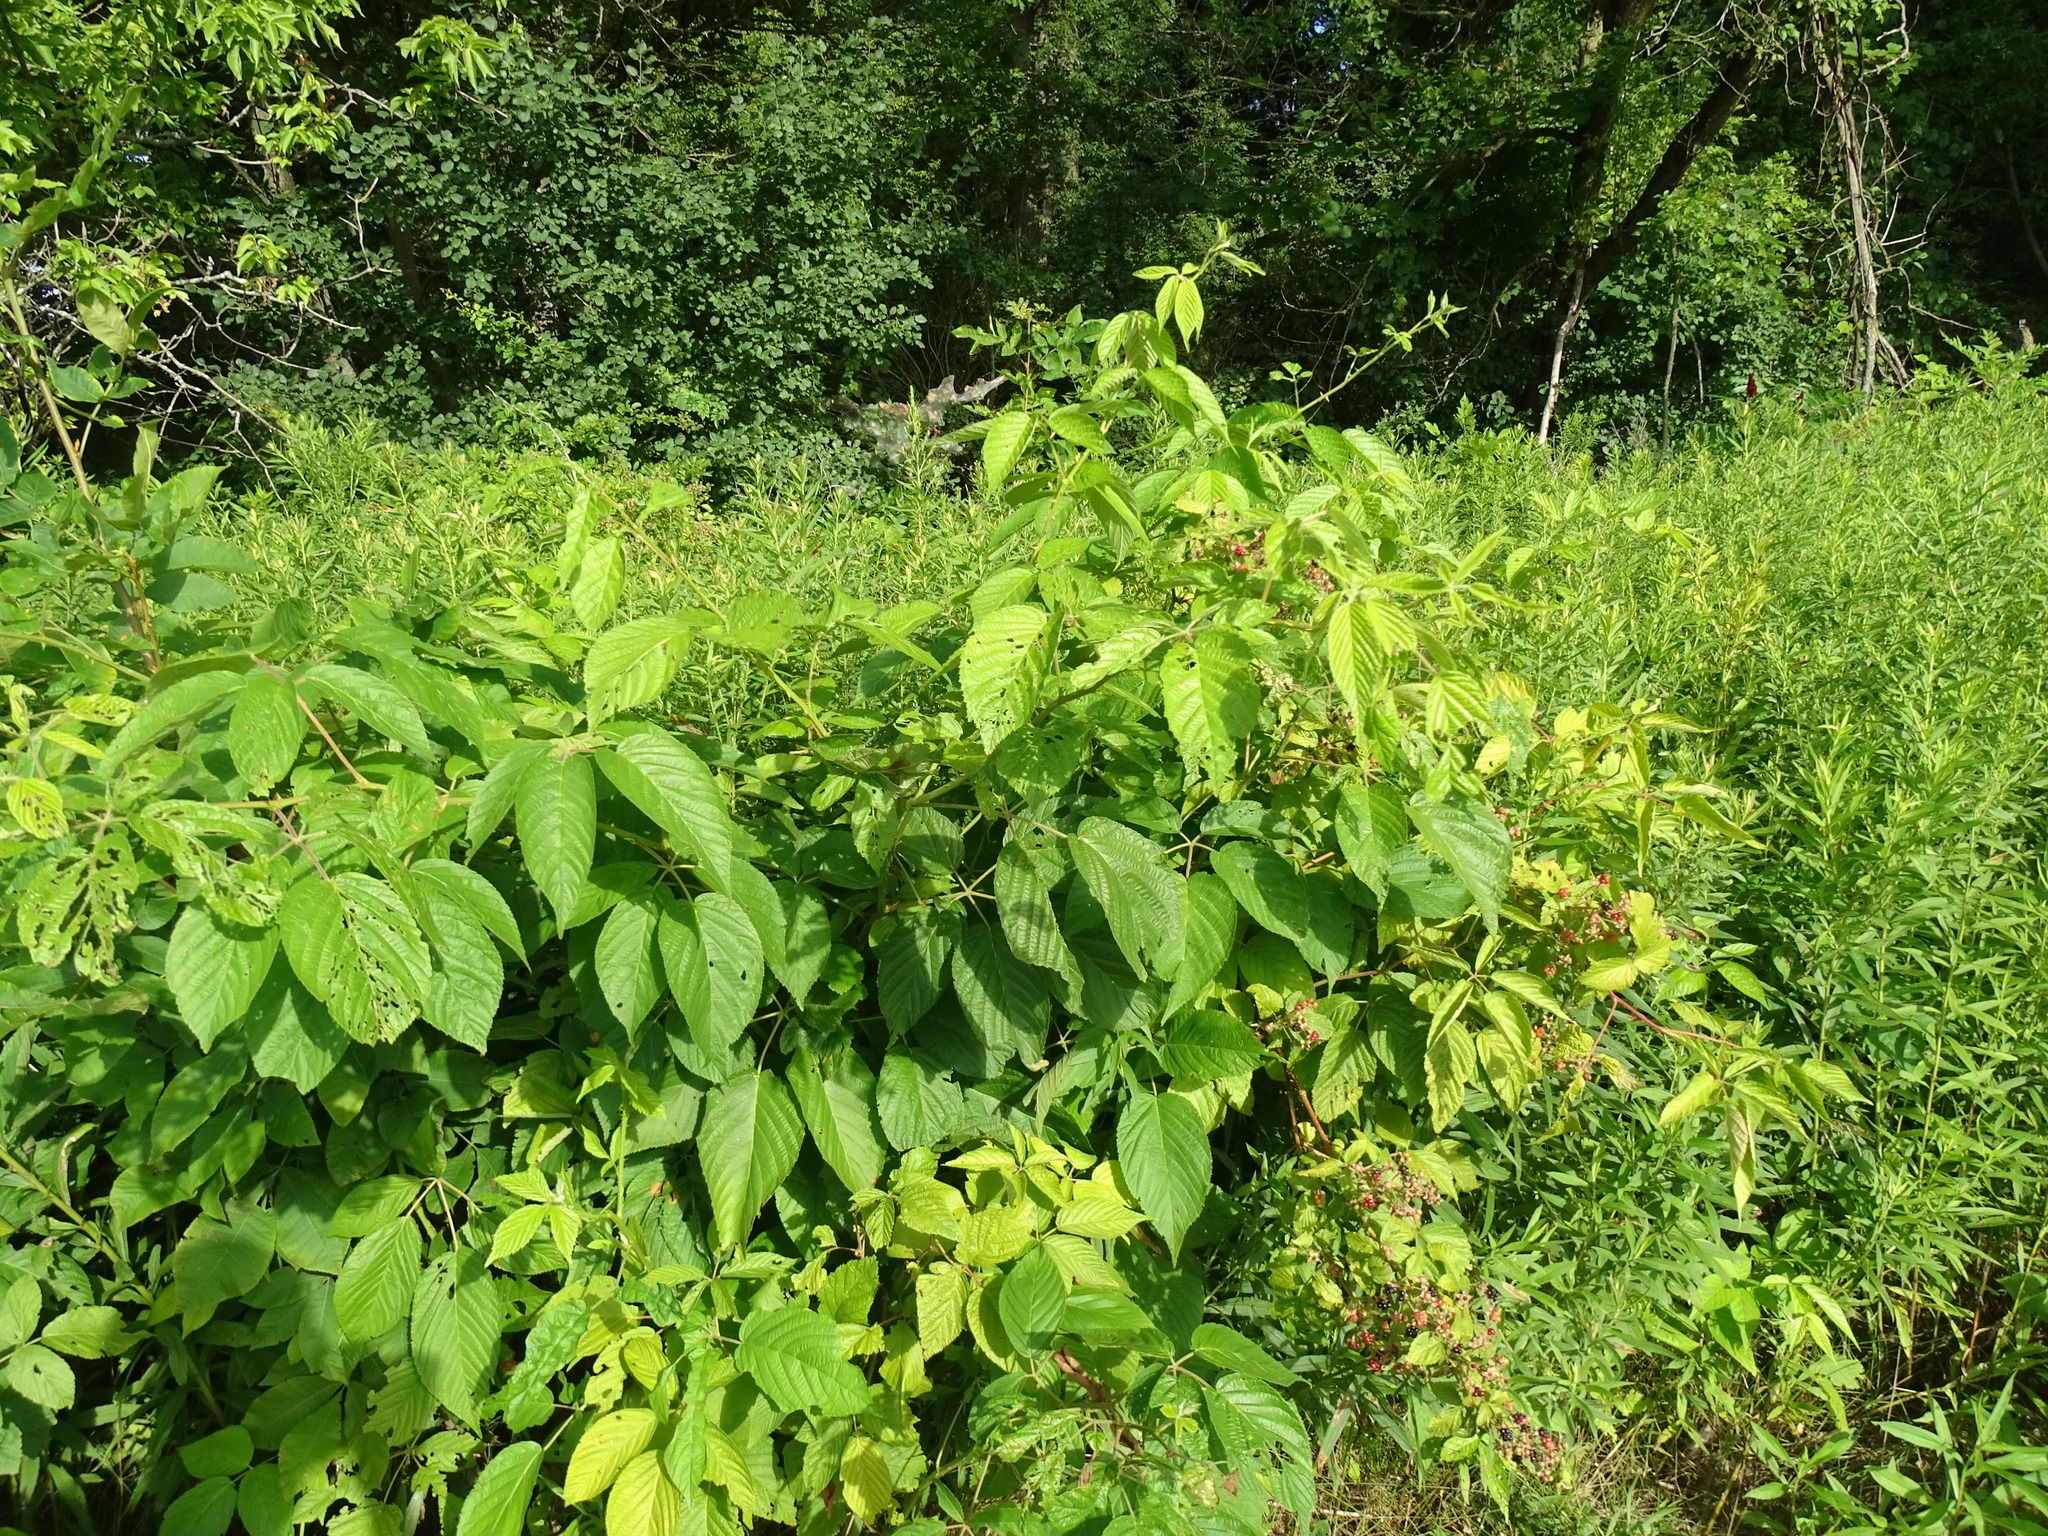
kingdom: Plantae
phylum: Tracheophyta
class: Magnoliopsida
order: Rosales
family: Rosaceae
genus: Rubus
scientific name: Rubus allegheniensis
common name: Allegheny blackberry
